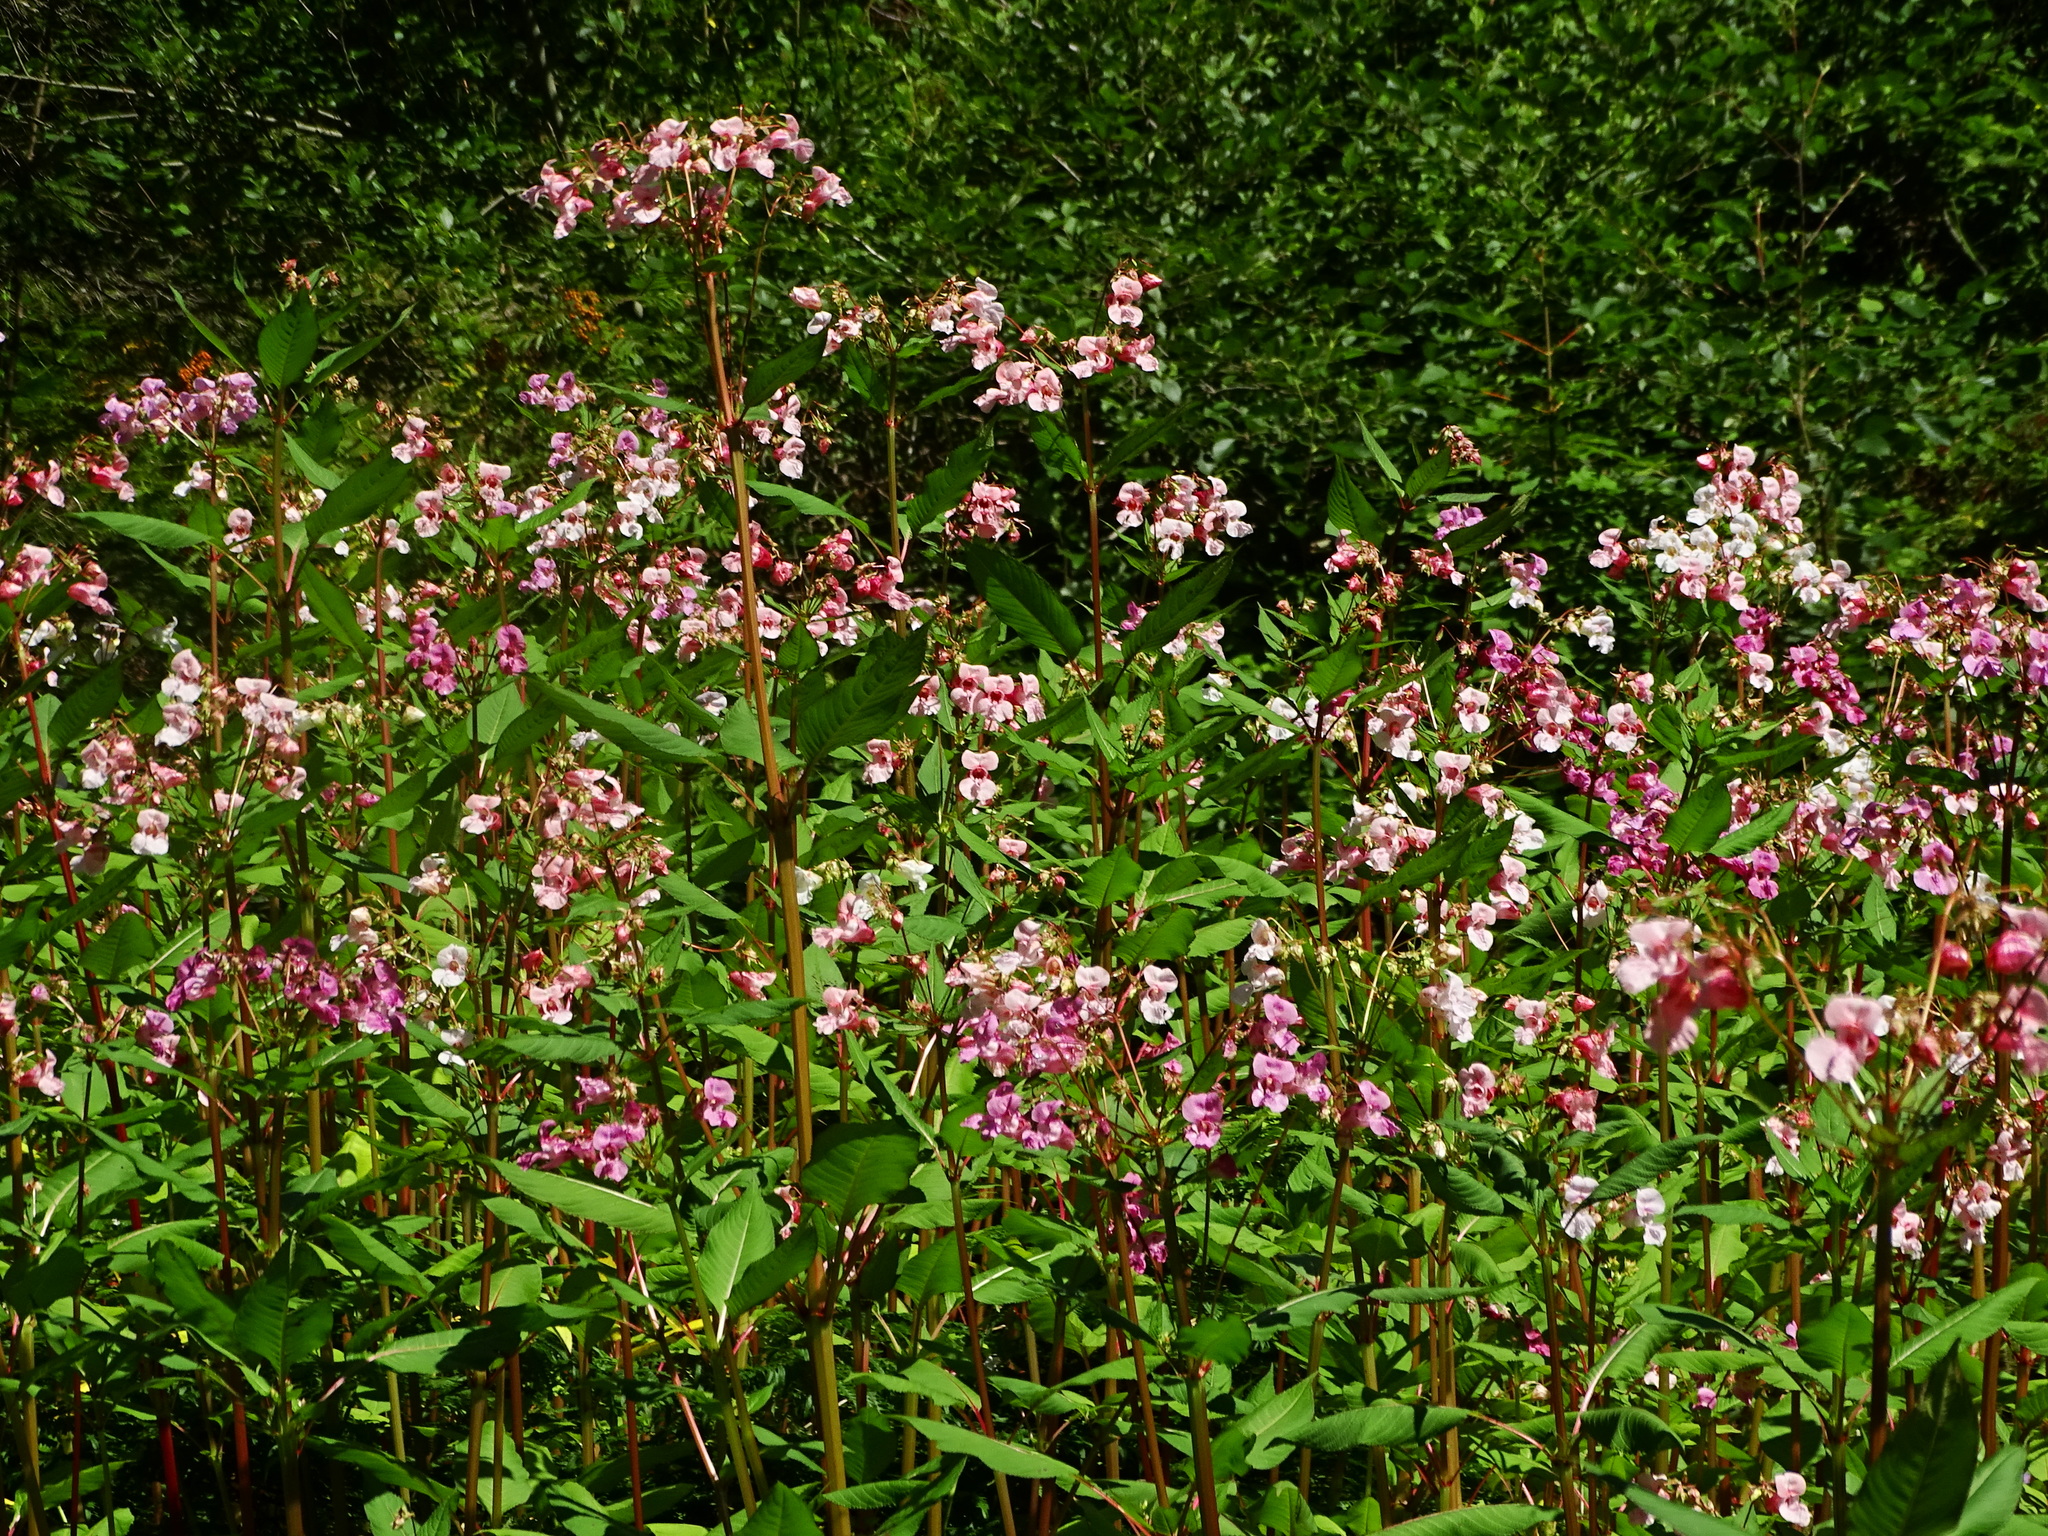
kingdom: Plantae
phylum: Tracheophyta
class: Magnoliopsida
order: Ericales
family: Balsaminaceae
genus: Impatiens
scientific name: Impatiens glandulifera
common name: Himalayan balsam
